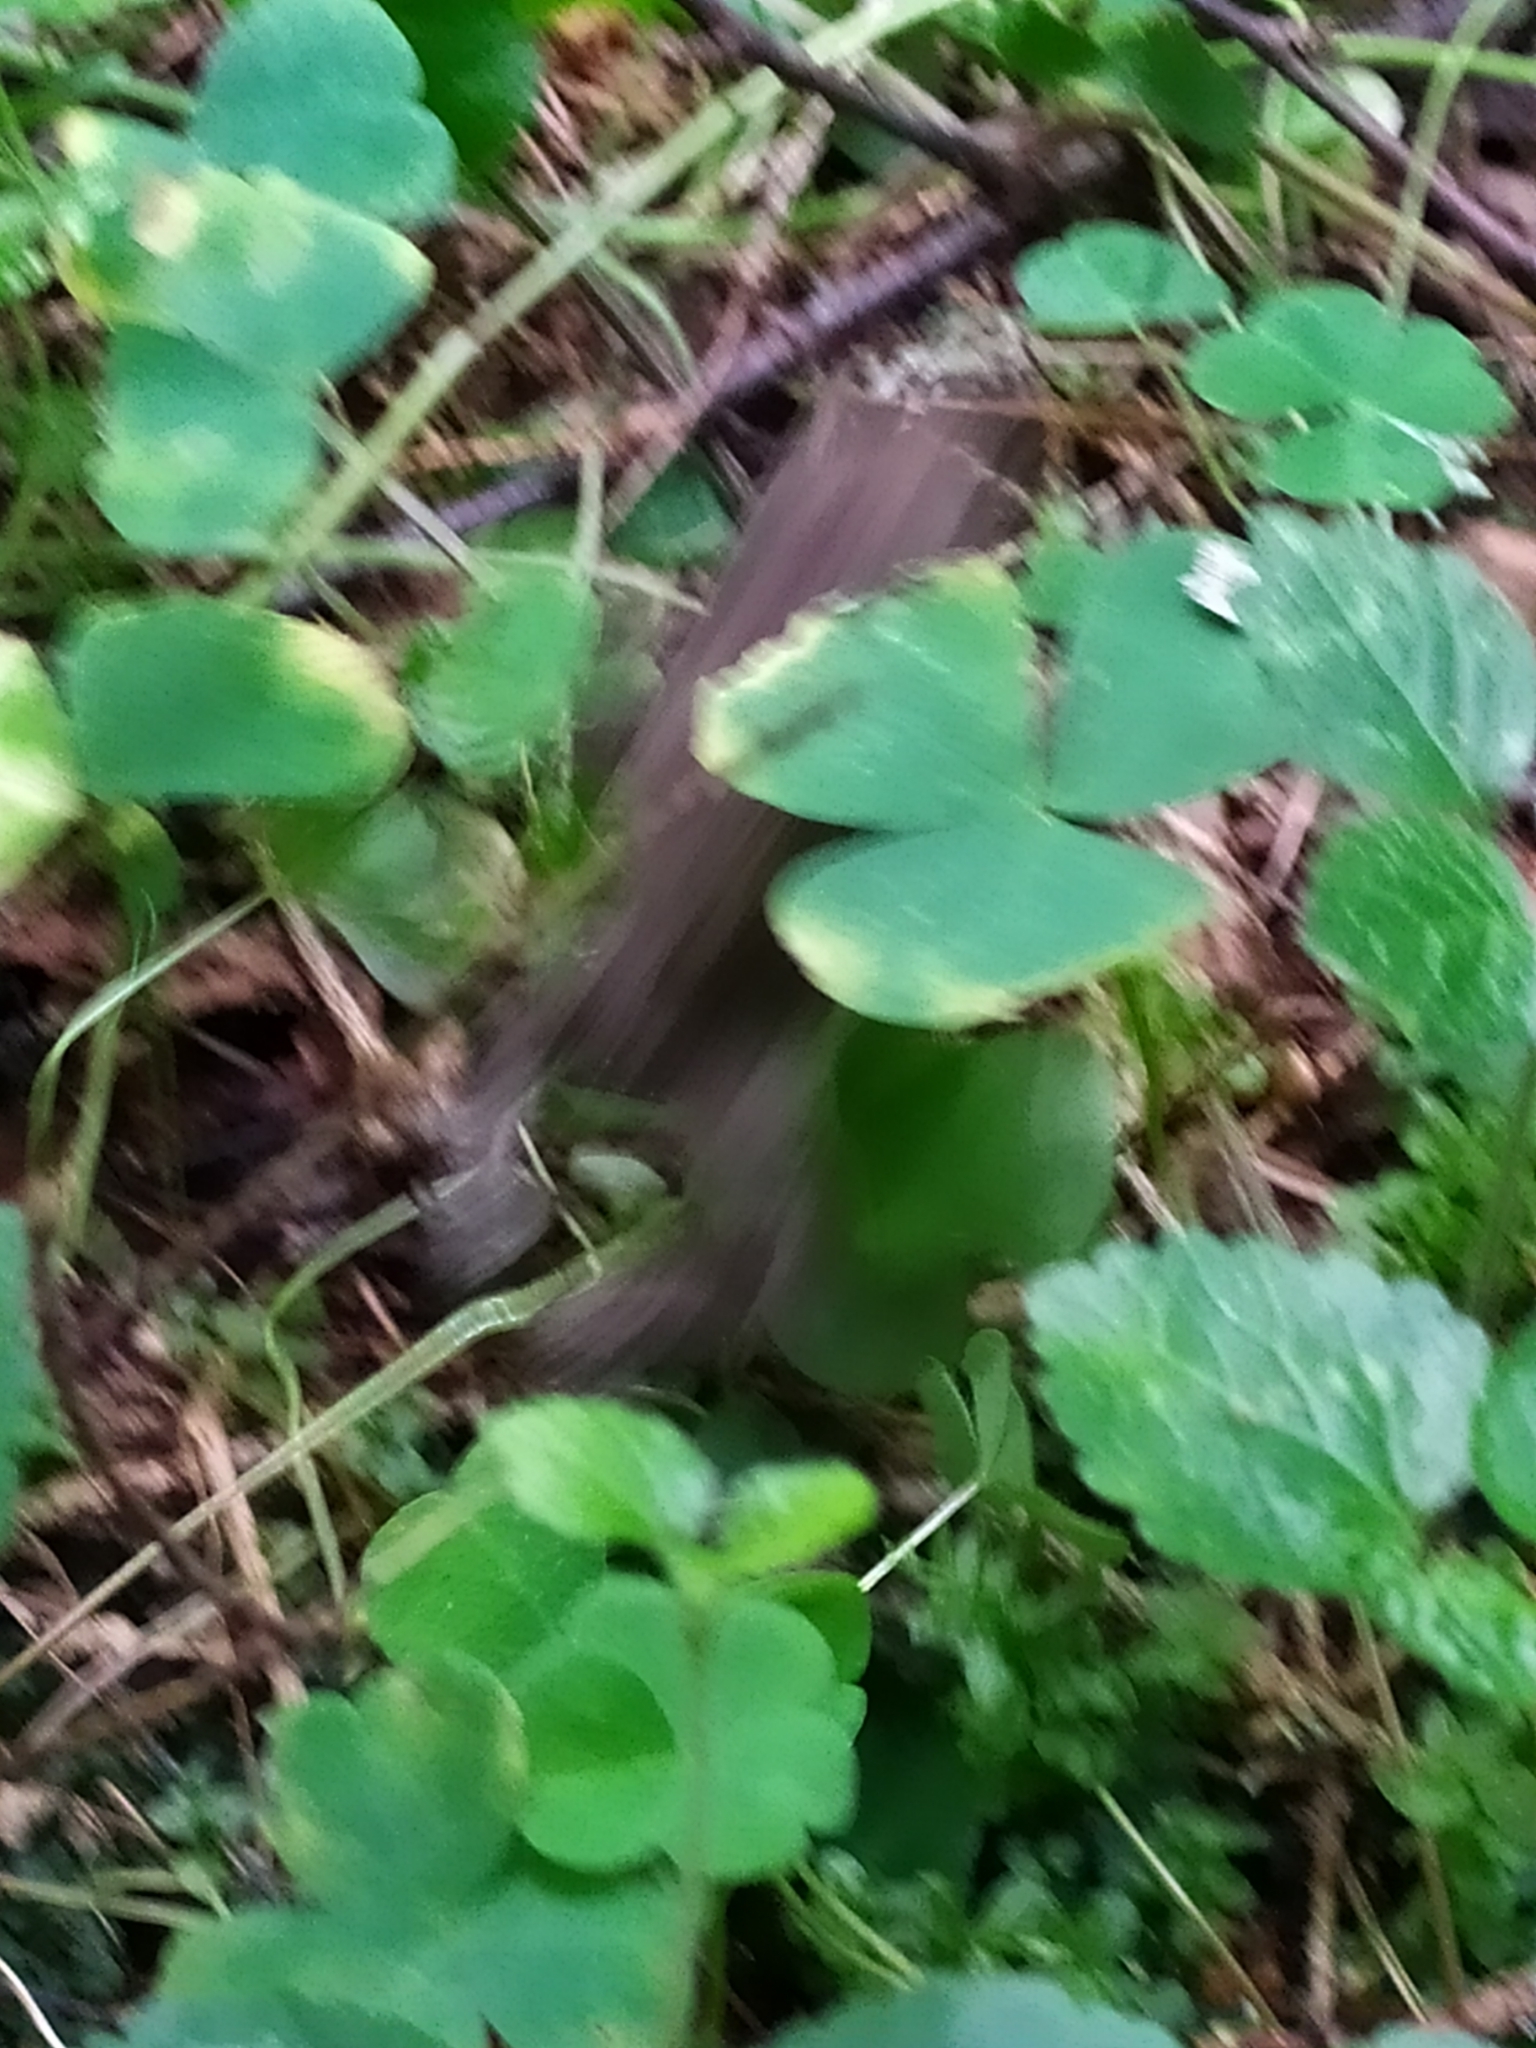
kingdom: Plantae
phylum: Tracheophyta
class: Magnoliopsida
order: Oxalidales
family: Oxalidaceae
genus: Oxalis
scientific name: Oxalis acetosella
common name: Wood-sorrel
